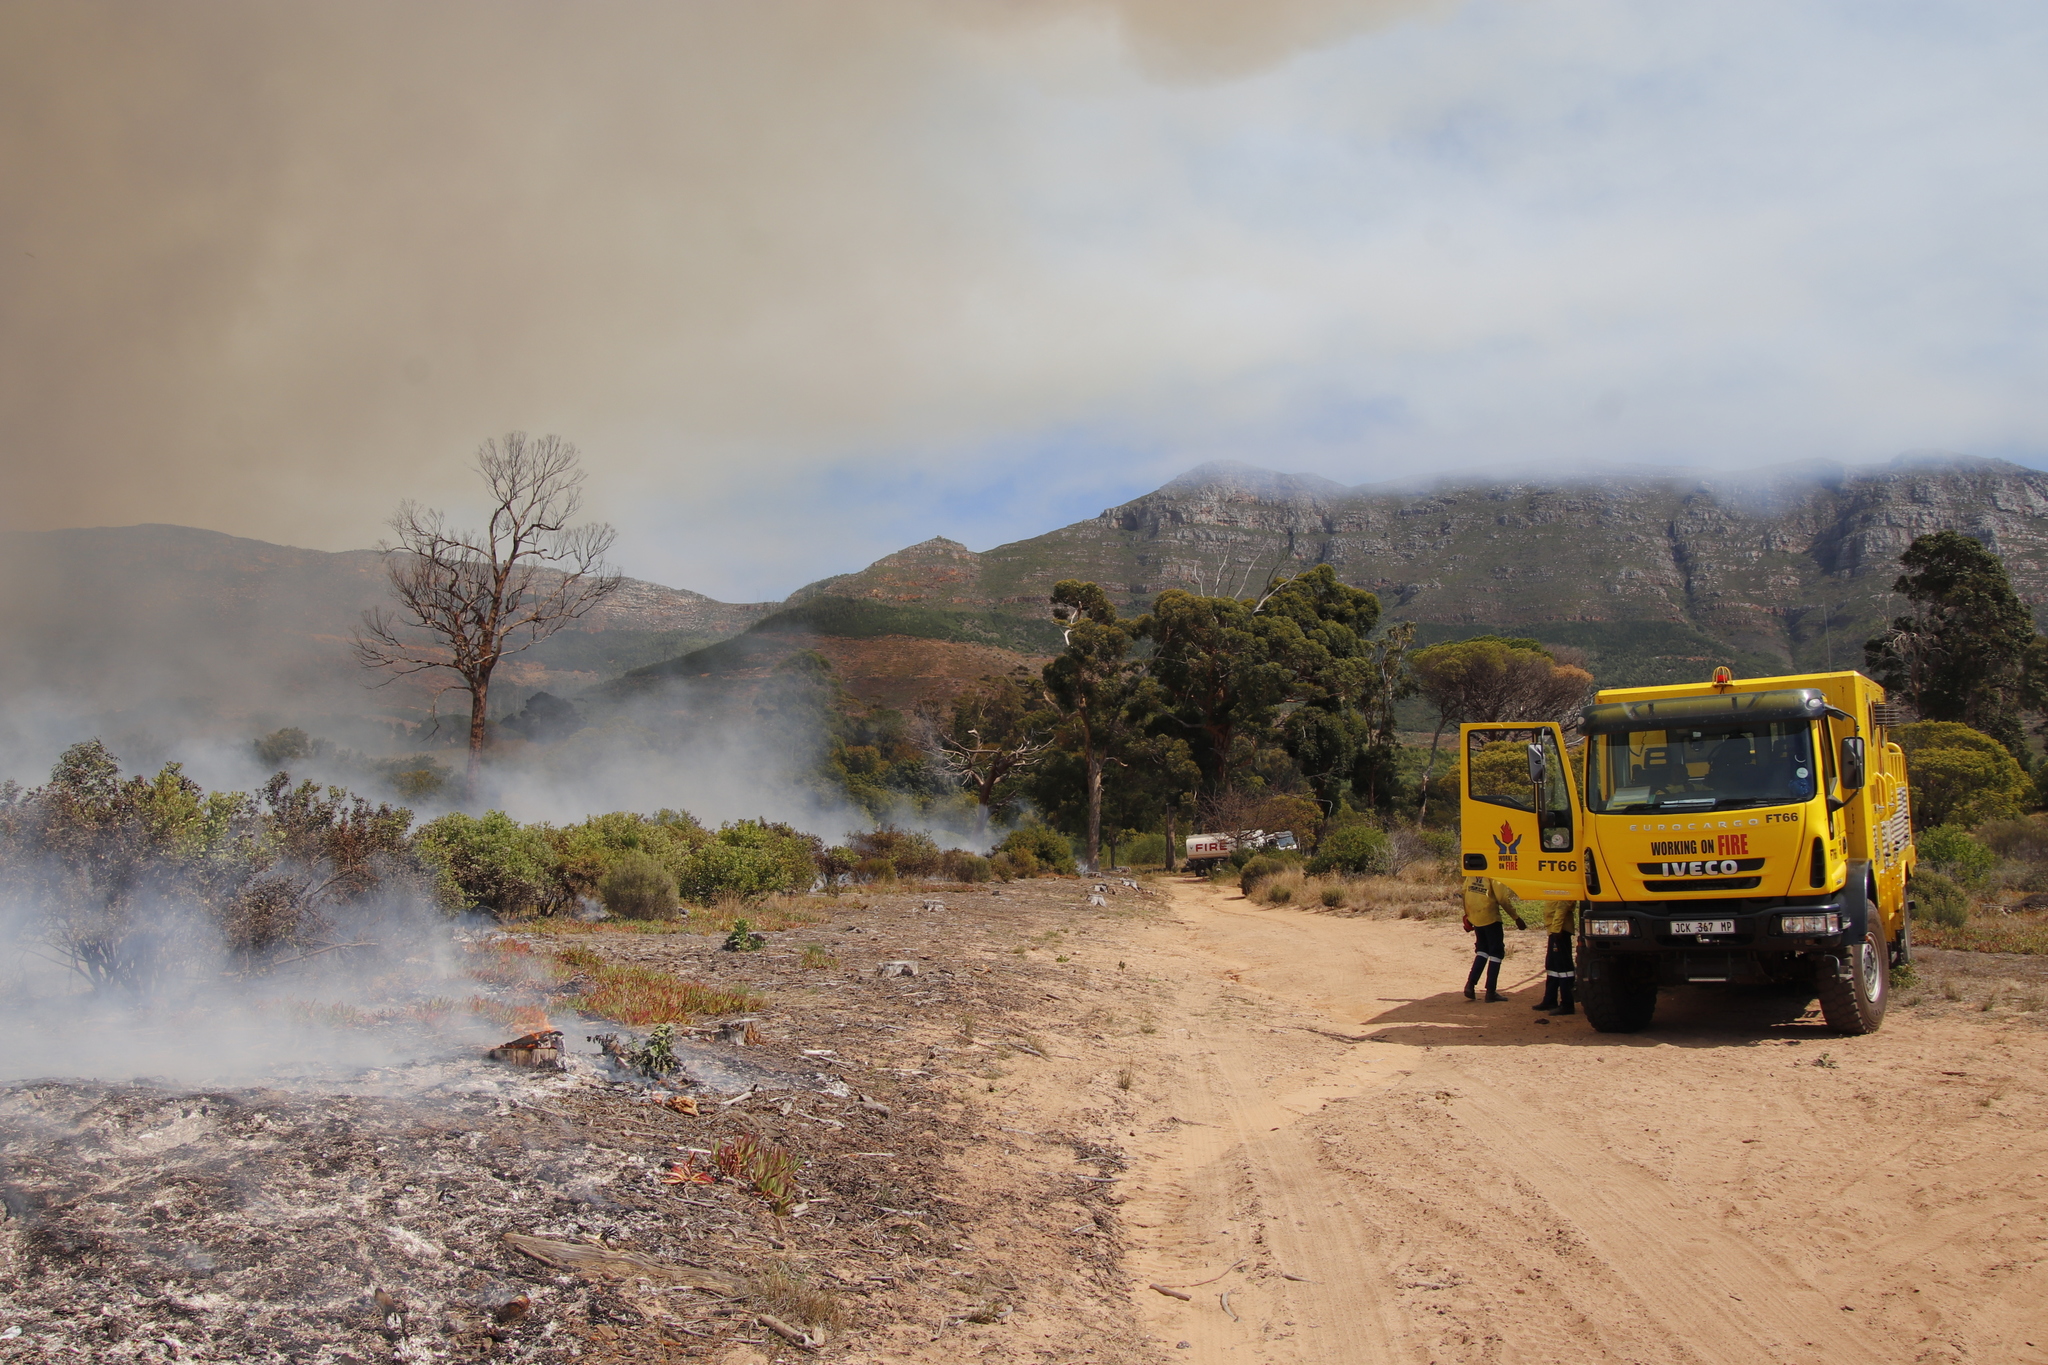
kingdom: Plantae
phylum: Tracheophyta
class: Magnoliopsida
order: Asterales
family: Asteraceae
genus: Osteospermum
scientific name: Osteospermum moniliferum
